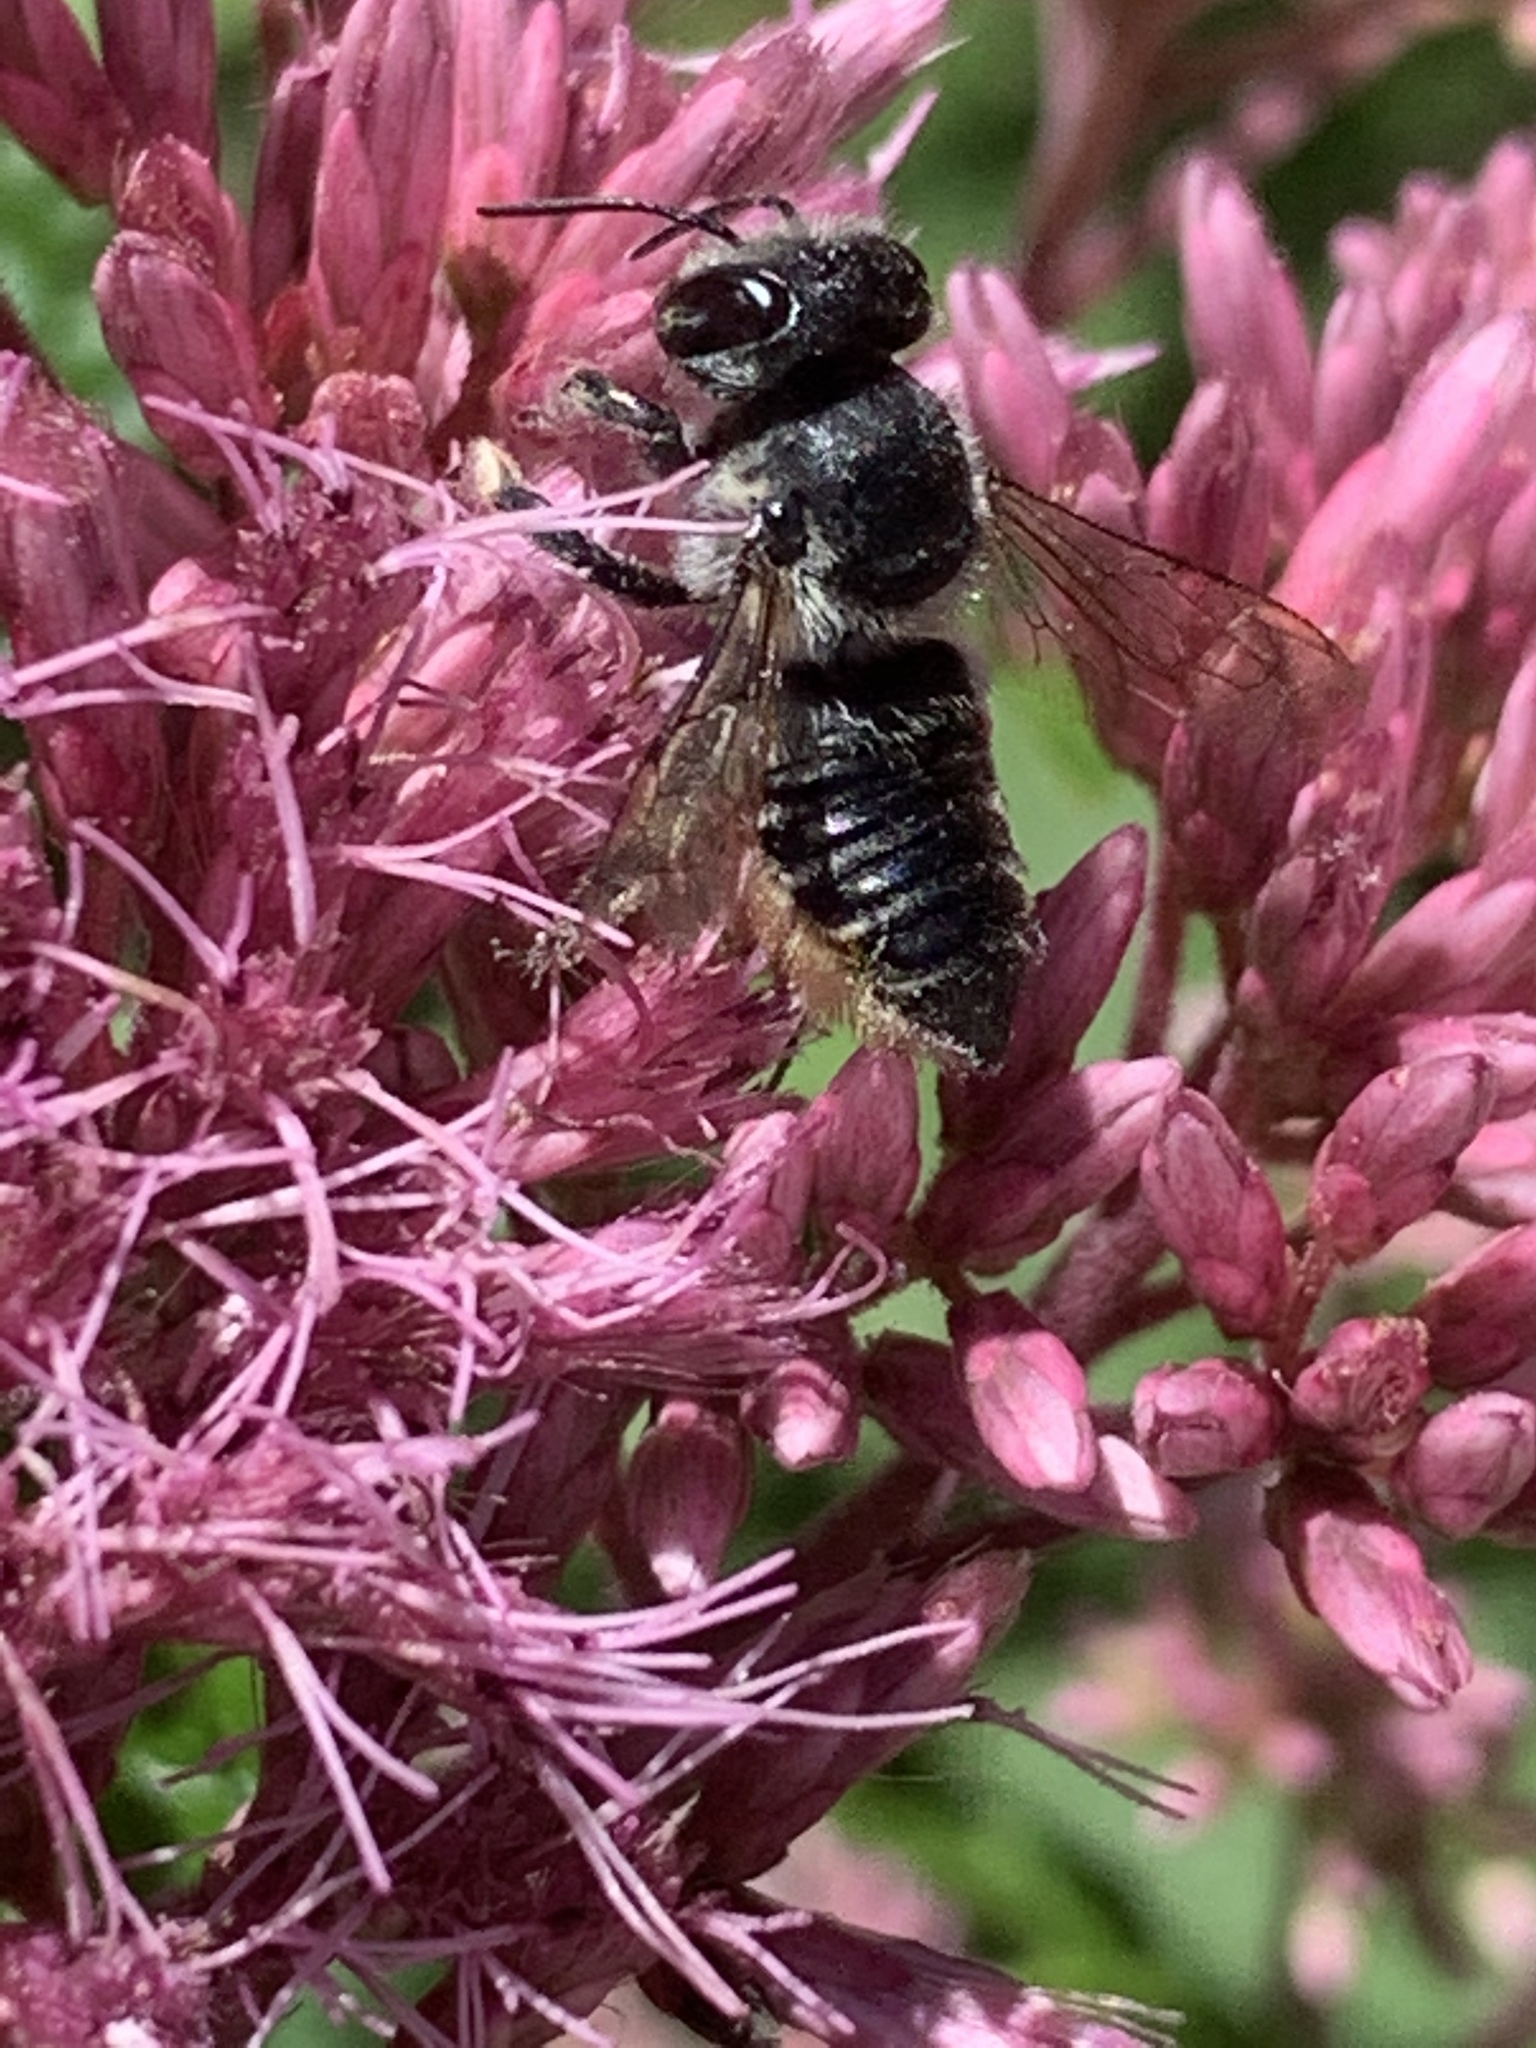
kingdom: Animalia
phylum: Arthropoda
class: Insecta
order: Hymenoptera
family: Megachilidae
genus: Megachile
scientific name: Megachile mendica
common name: Flat-tailed leafcutter
